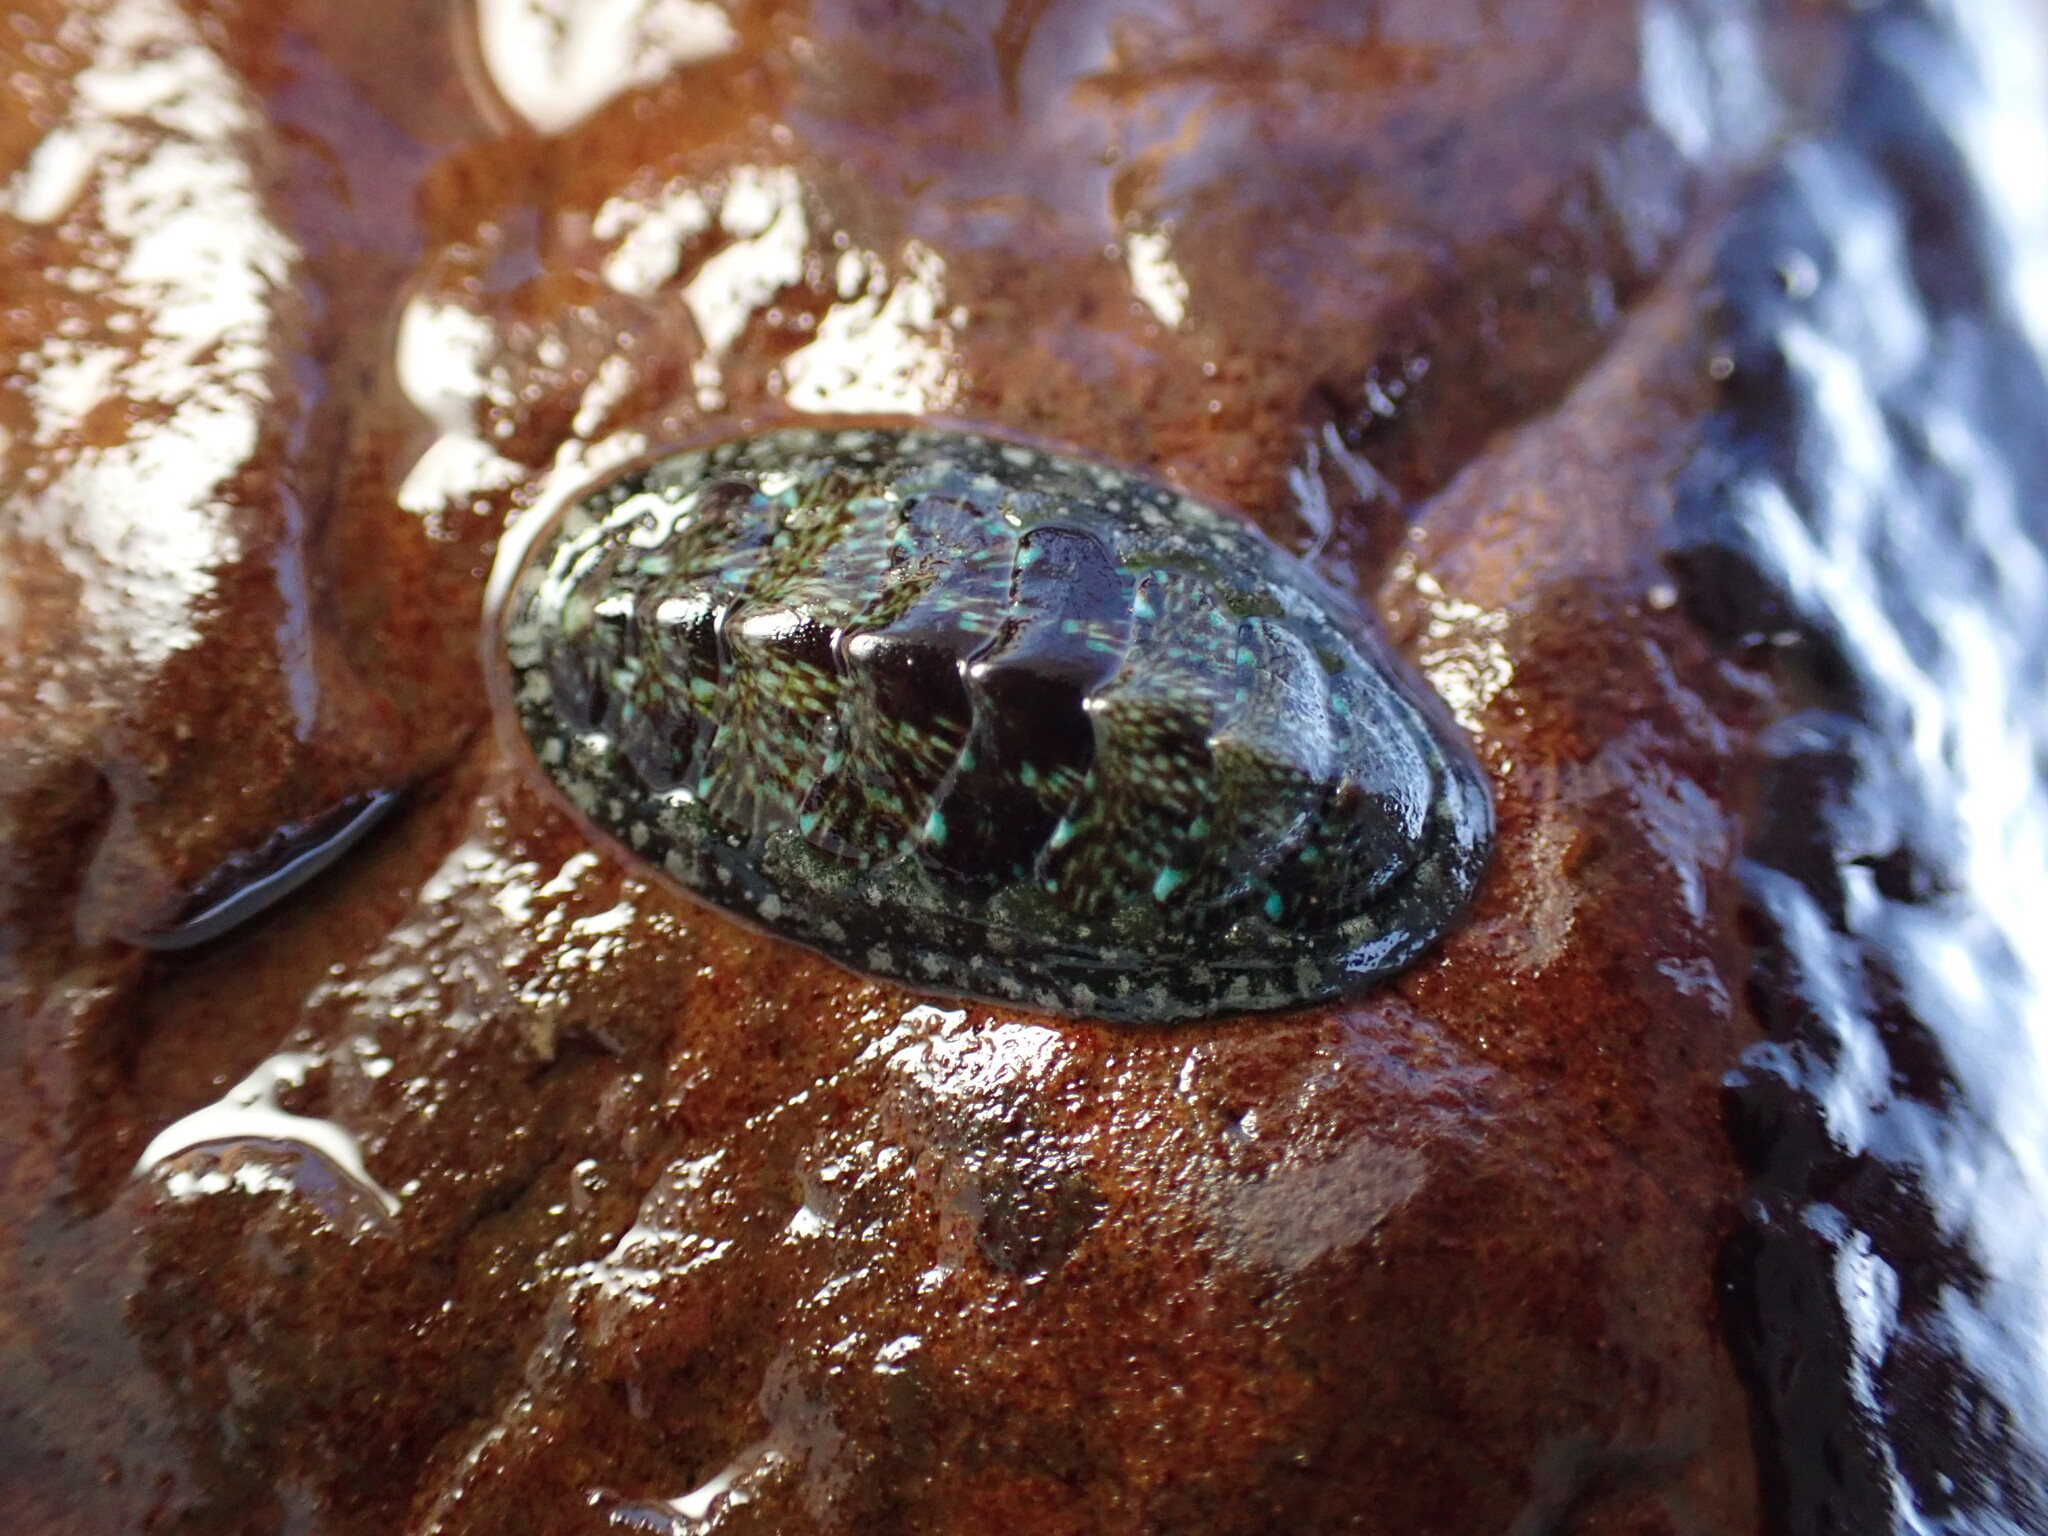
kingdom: Animalia
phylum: Mollusca
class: Polyplacophora
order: Chitonida
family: Tonicellidae
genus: Cyanoplax
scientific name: Cyanoplax dentiens
